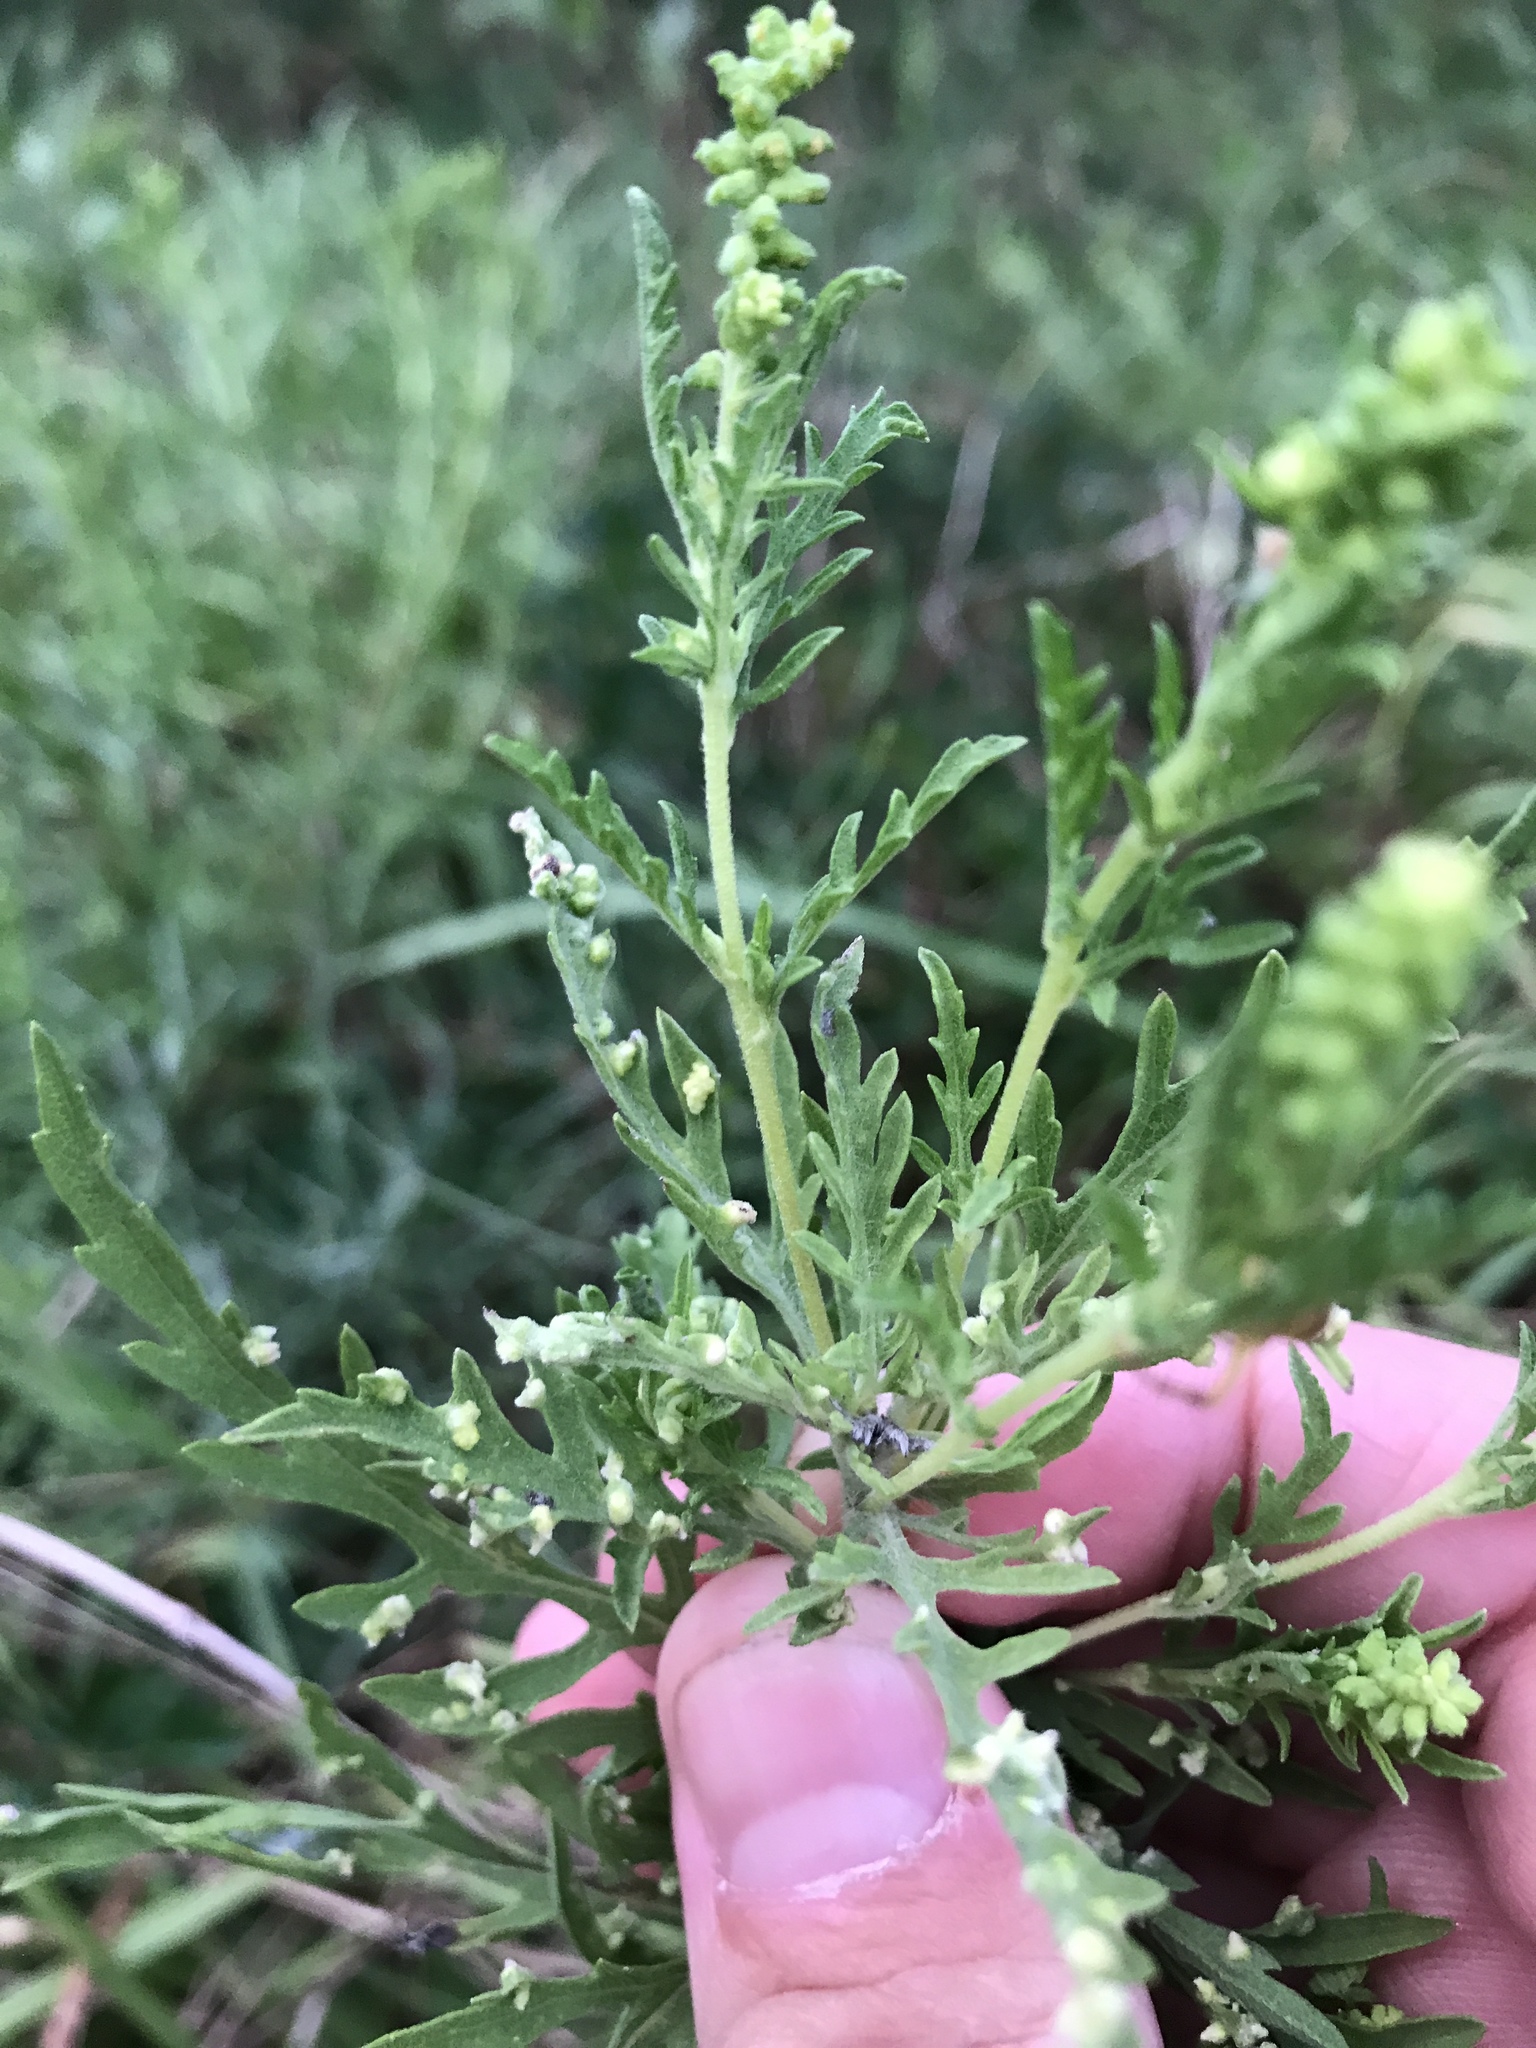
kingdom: Animalia
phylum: Arthropoda
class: Arachnida
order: Trombidiformes
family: Eriophyidae
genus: Aceria
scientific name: Aceria
